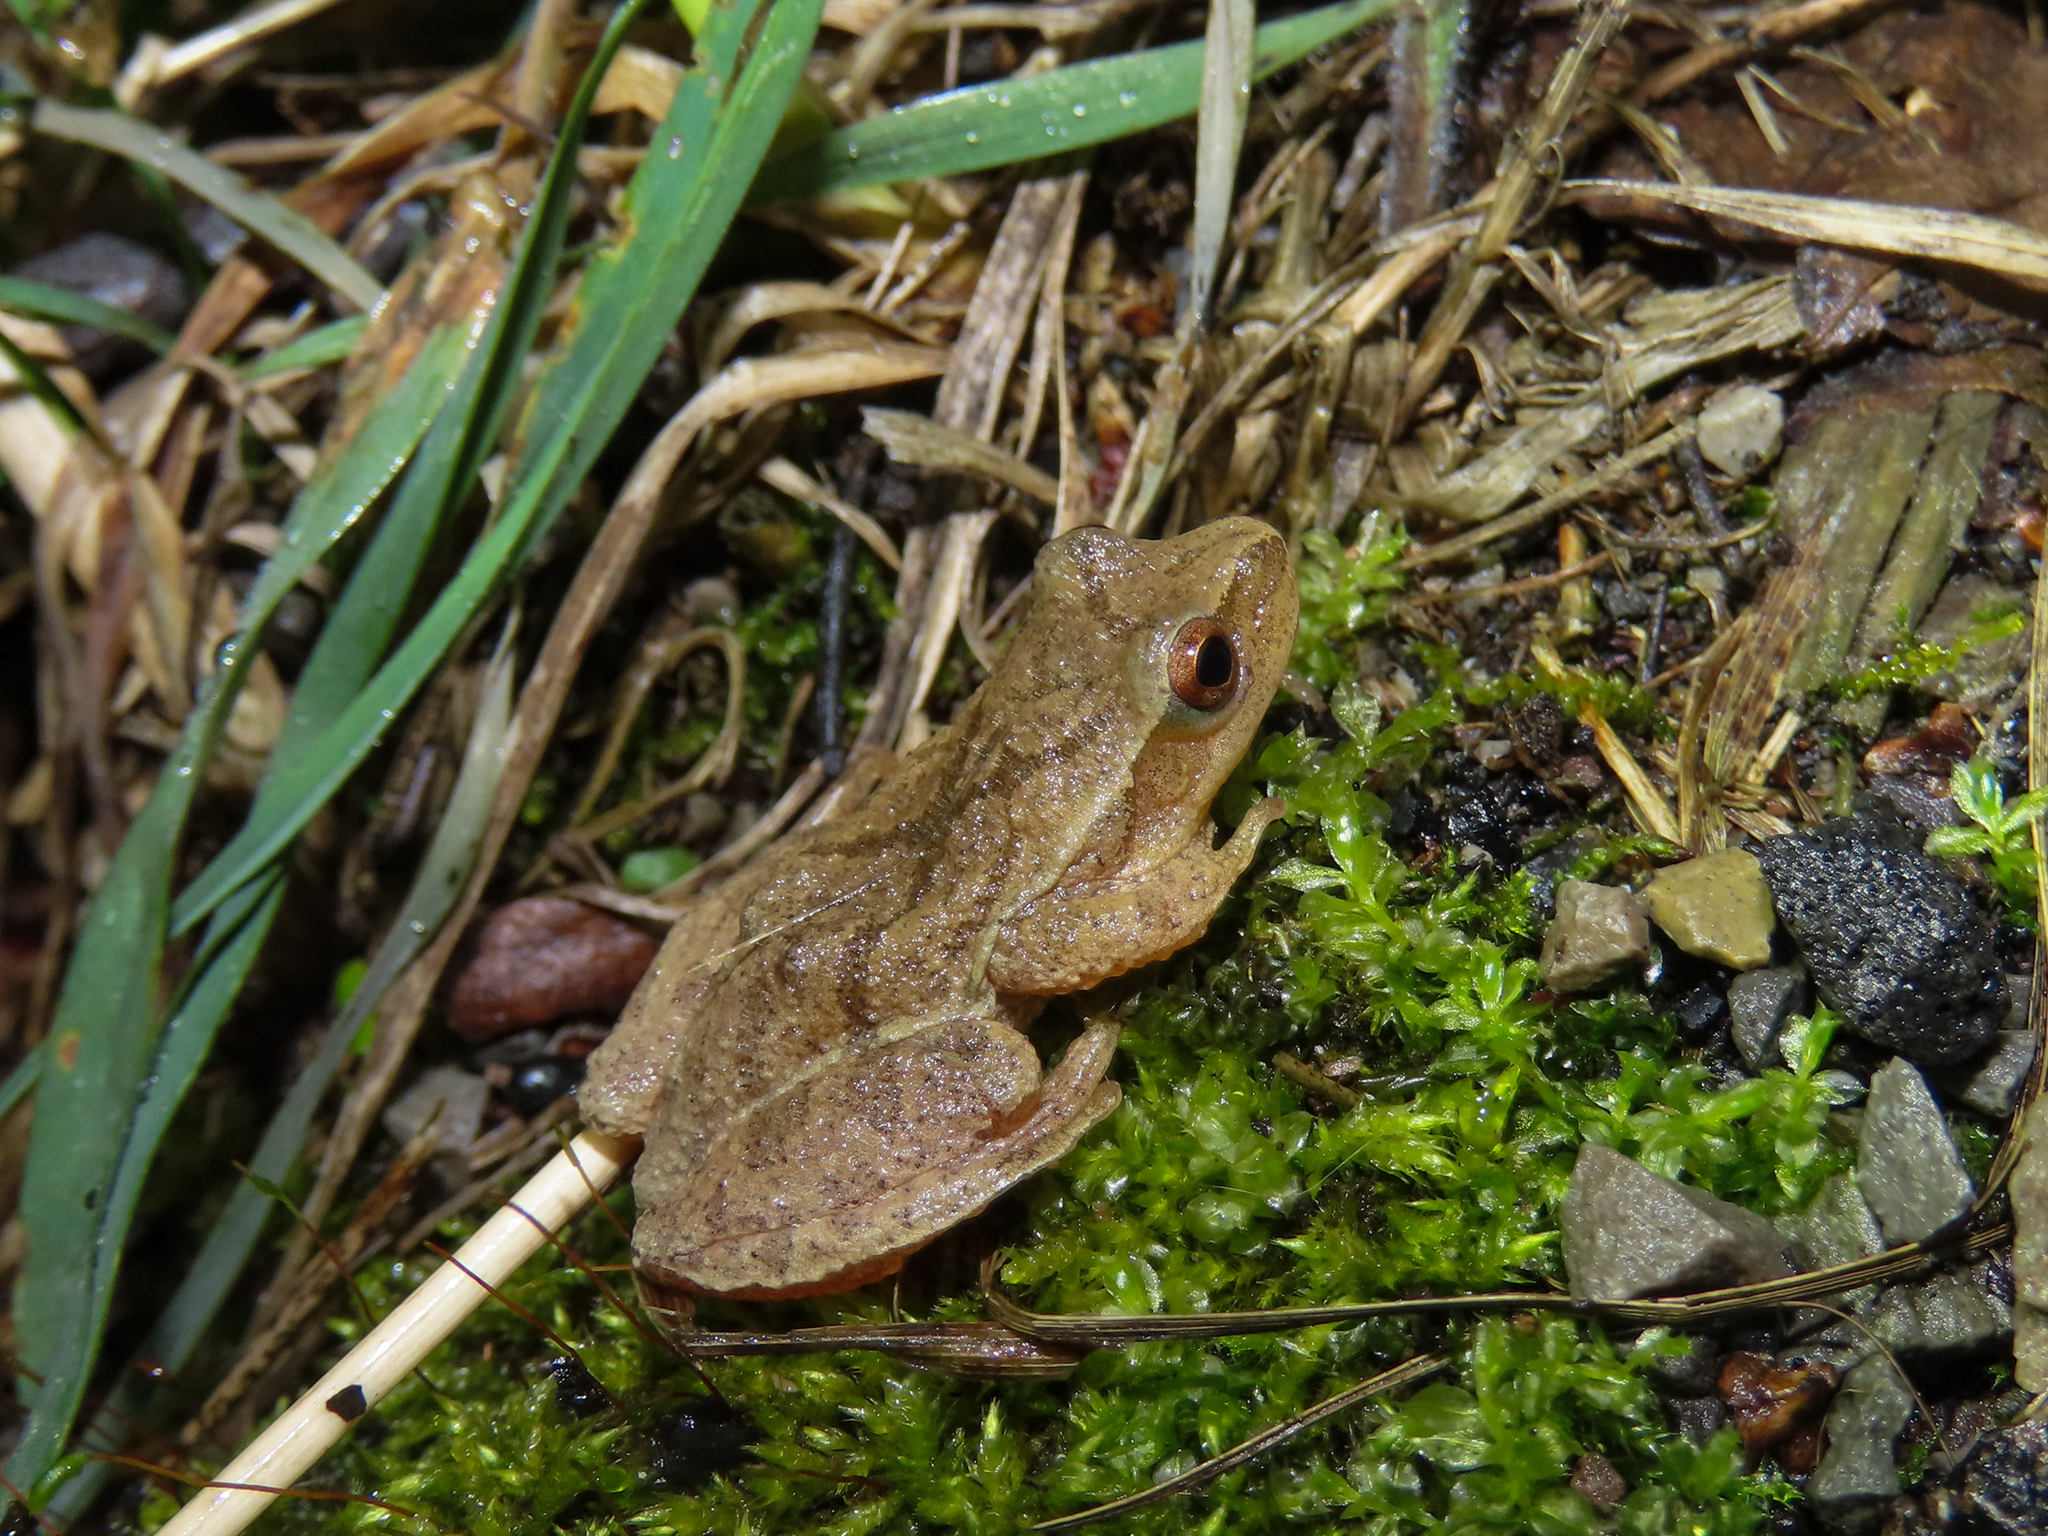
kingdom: Animalia
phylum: Chordata
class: Amphibia
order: Anura
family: Hylidae
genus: Pseudacris
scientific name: Pseudacris crucifer
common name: Spring peeper
